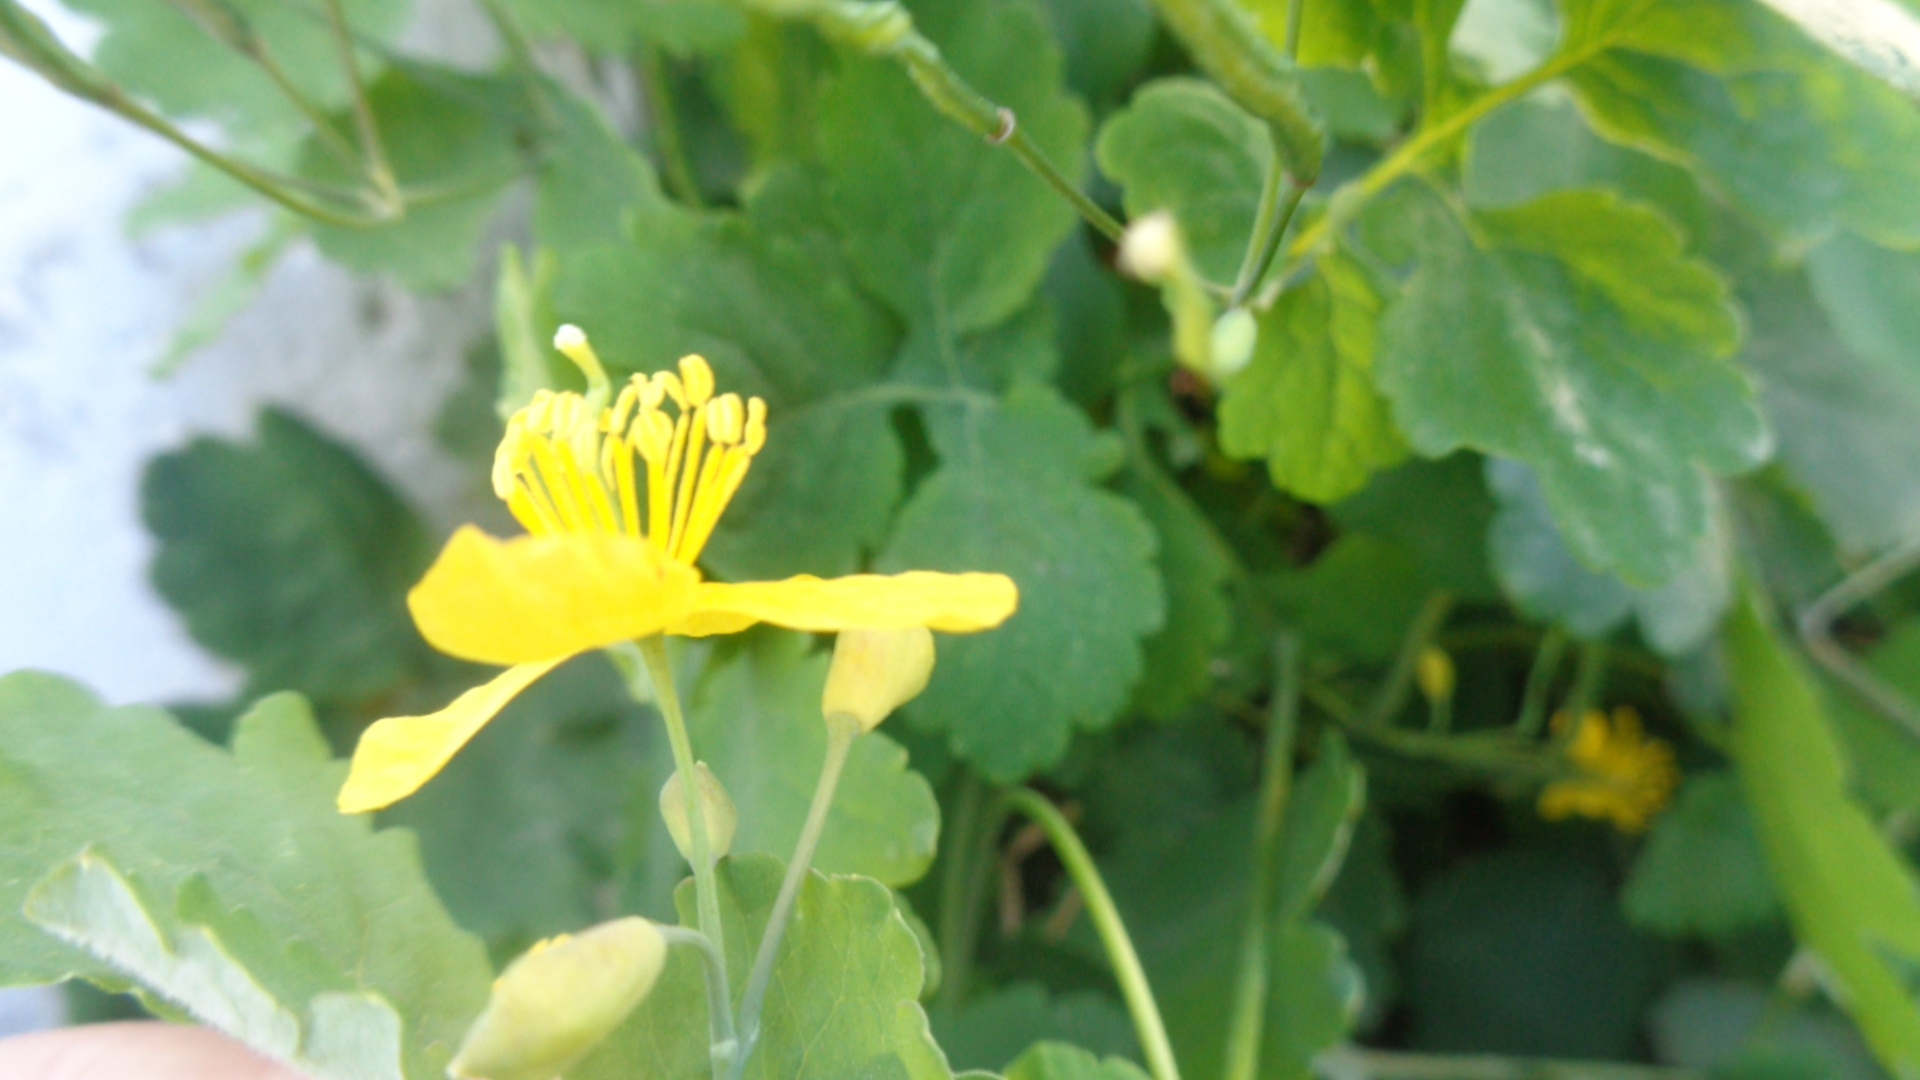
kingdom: Plantae
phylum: Tracheophyta
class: Magnoliopsida
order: Ranunculales
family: Papaveraceae
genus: Chelidonium
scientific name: Chelidonium majus
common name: Greater celandine
